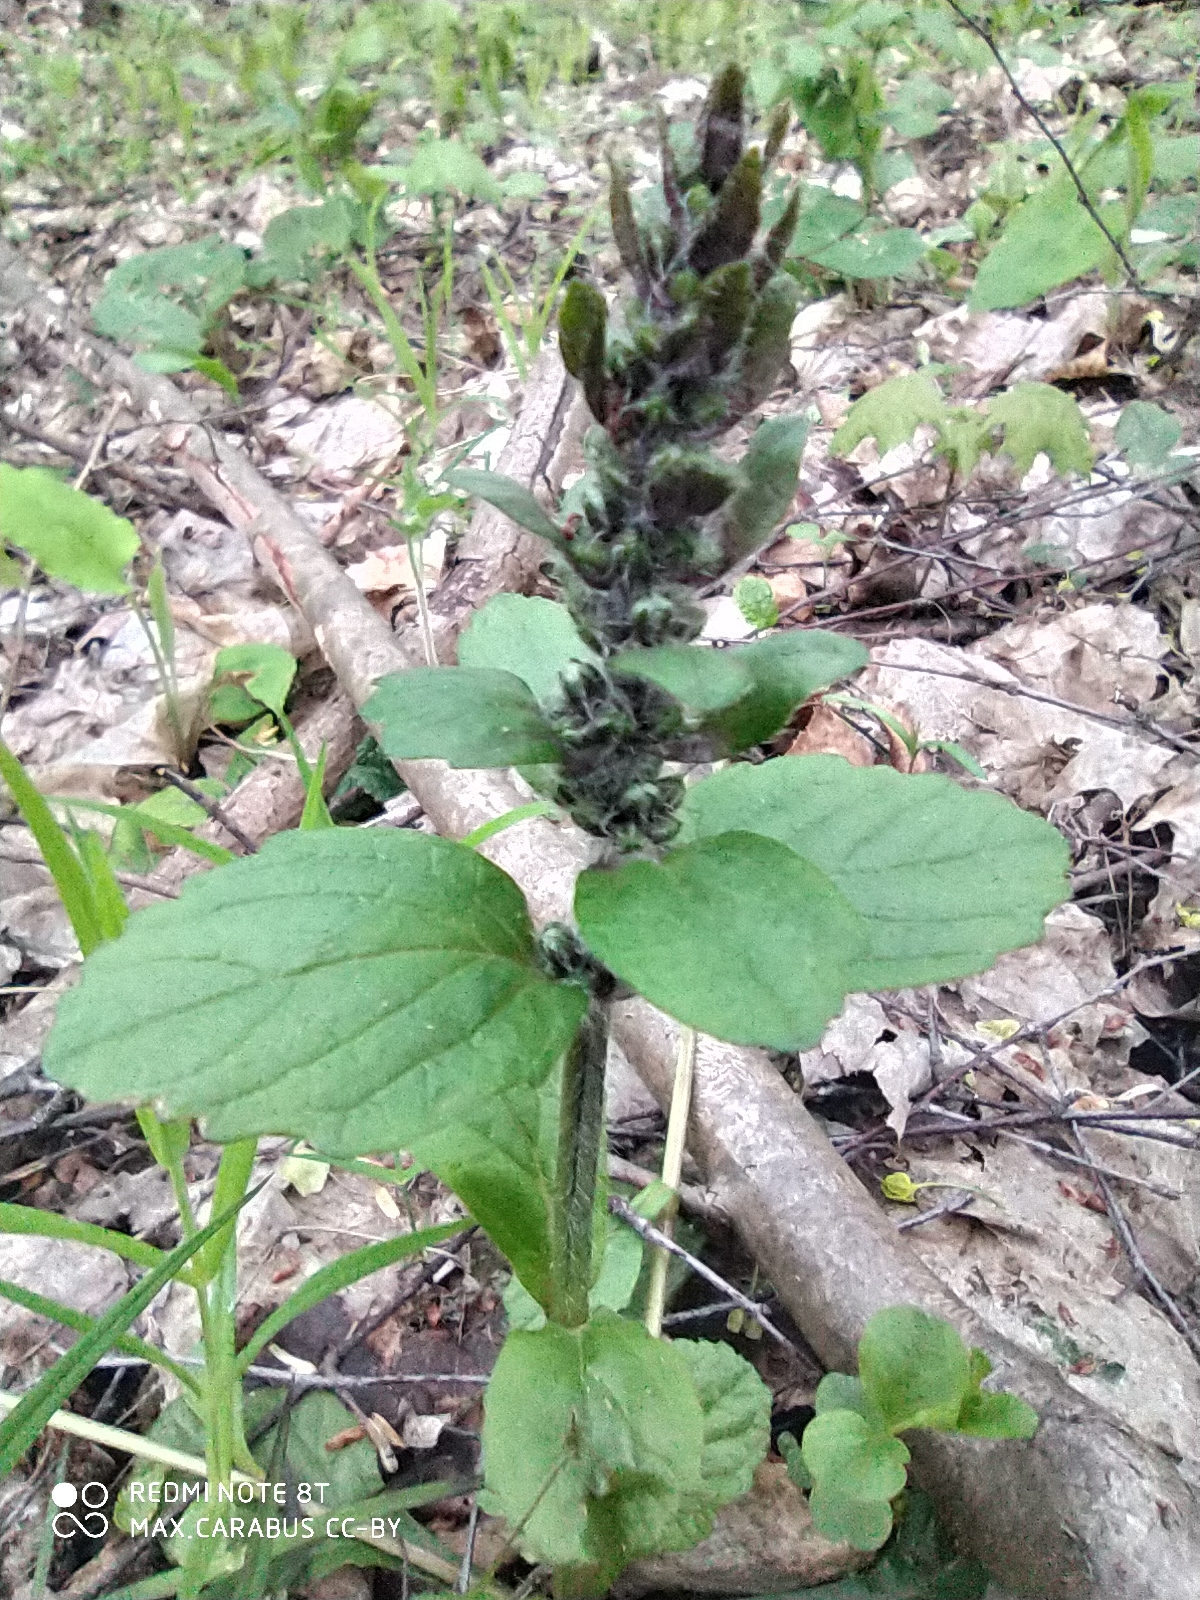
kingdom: Plantae
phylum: Tracheophyta
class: Magnoliopsida
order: Lamiales
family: Lamiaceae
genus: Ajuga
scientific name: Ajuga reptans
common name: Bugle
